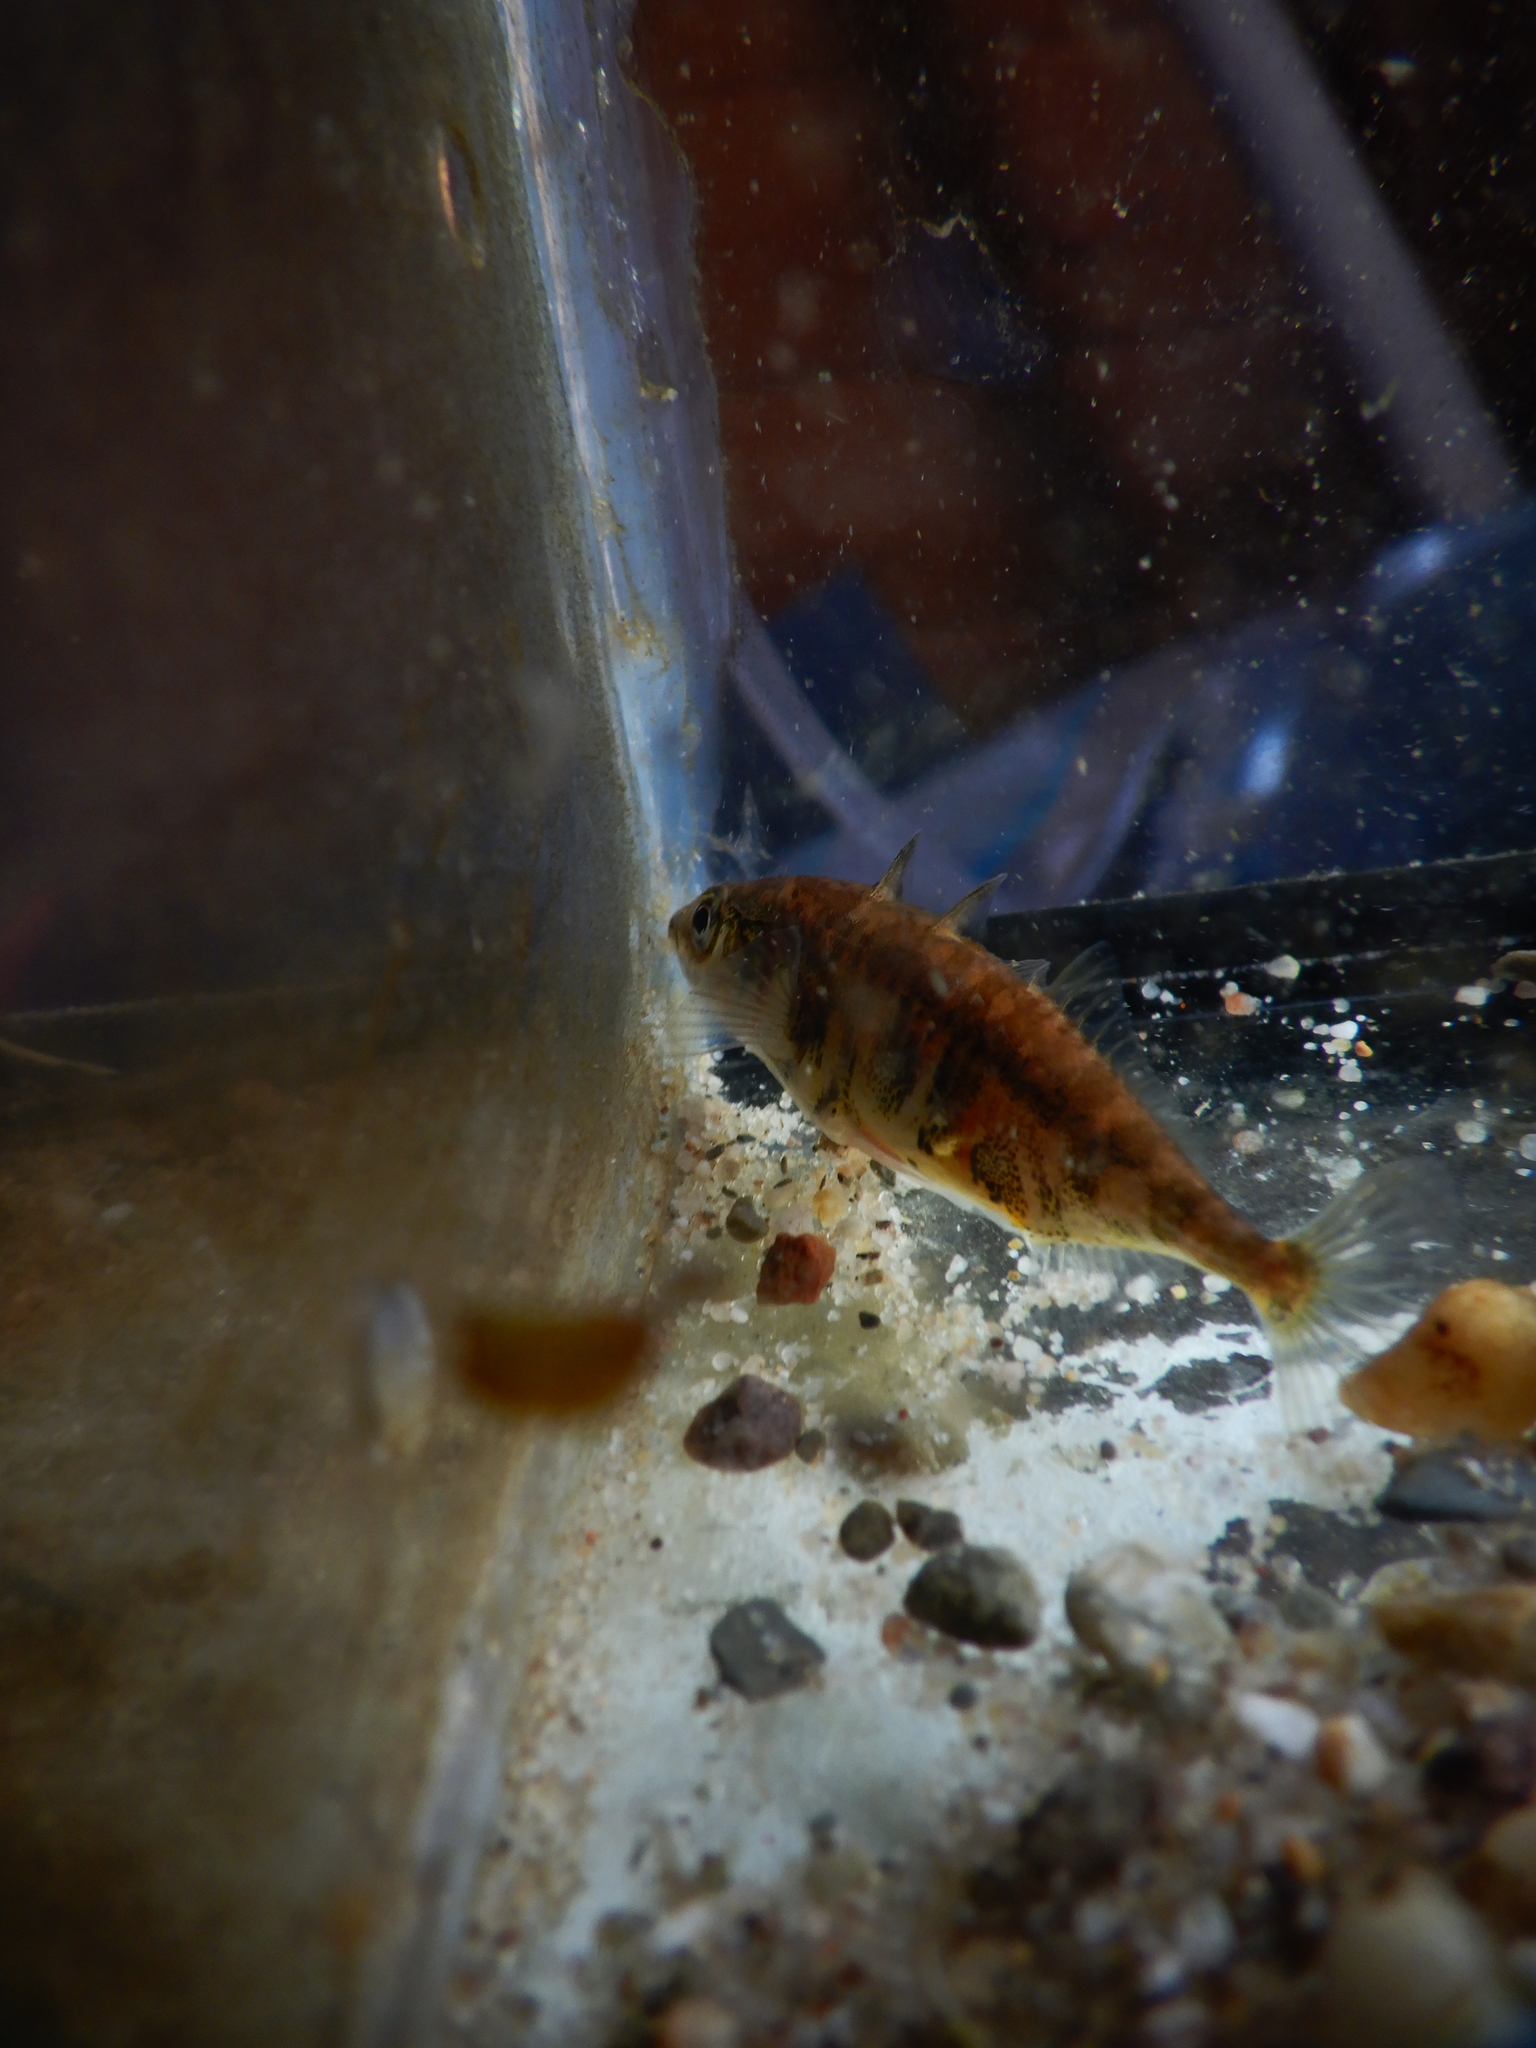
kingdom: Animalia
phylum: Chordata
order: Gasterosteiformes
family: Gasterosteidae
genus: Gasterosteus
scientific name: Gasterosteus aculeatus
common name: Three-spined stickleback
